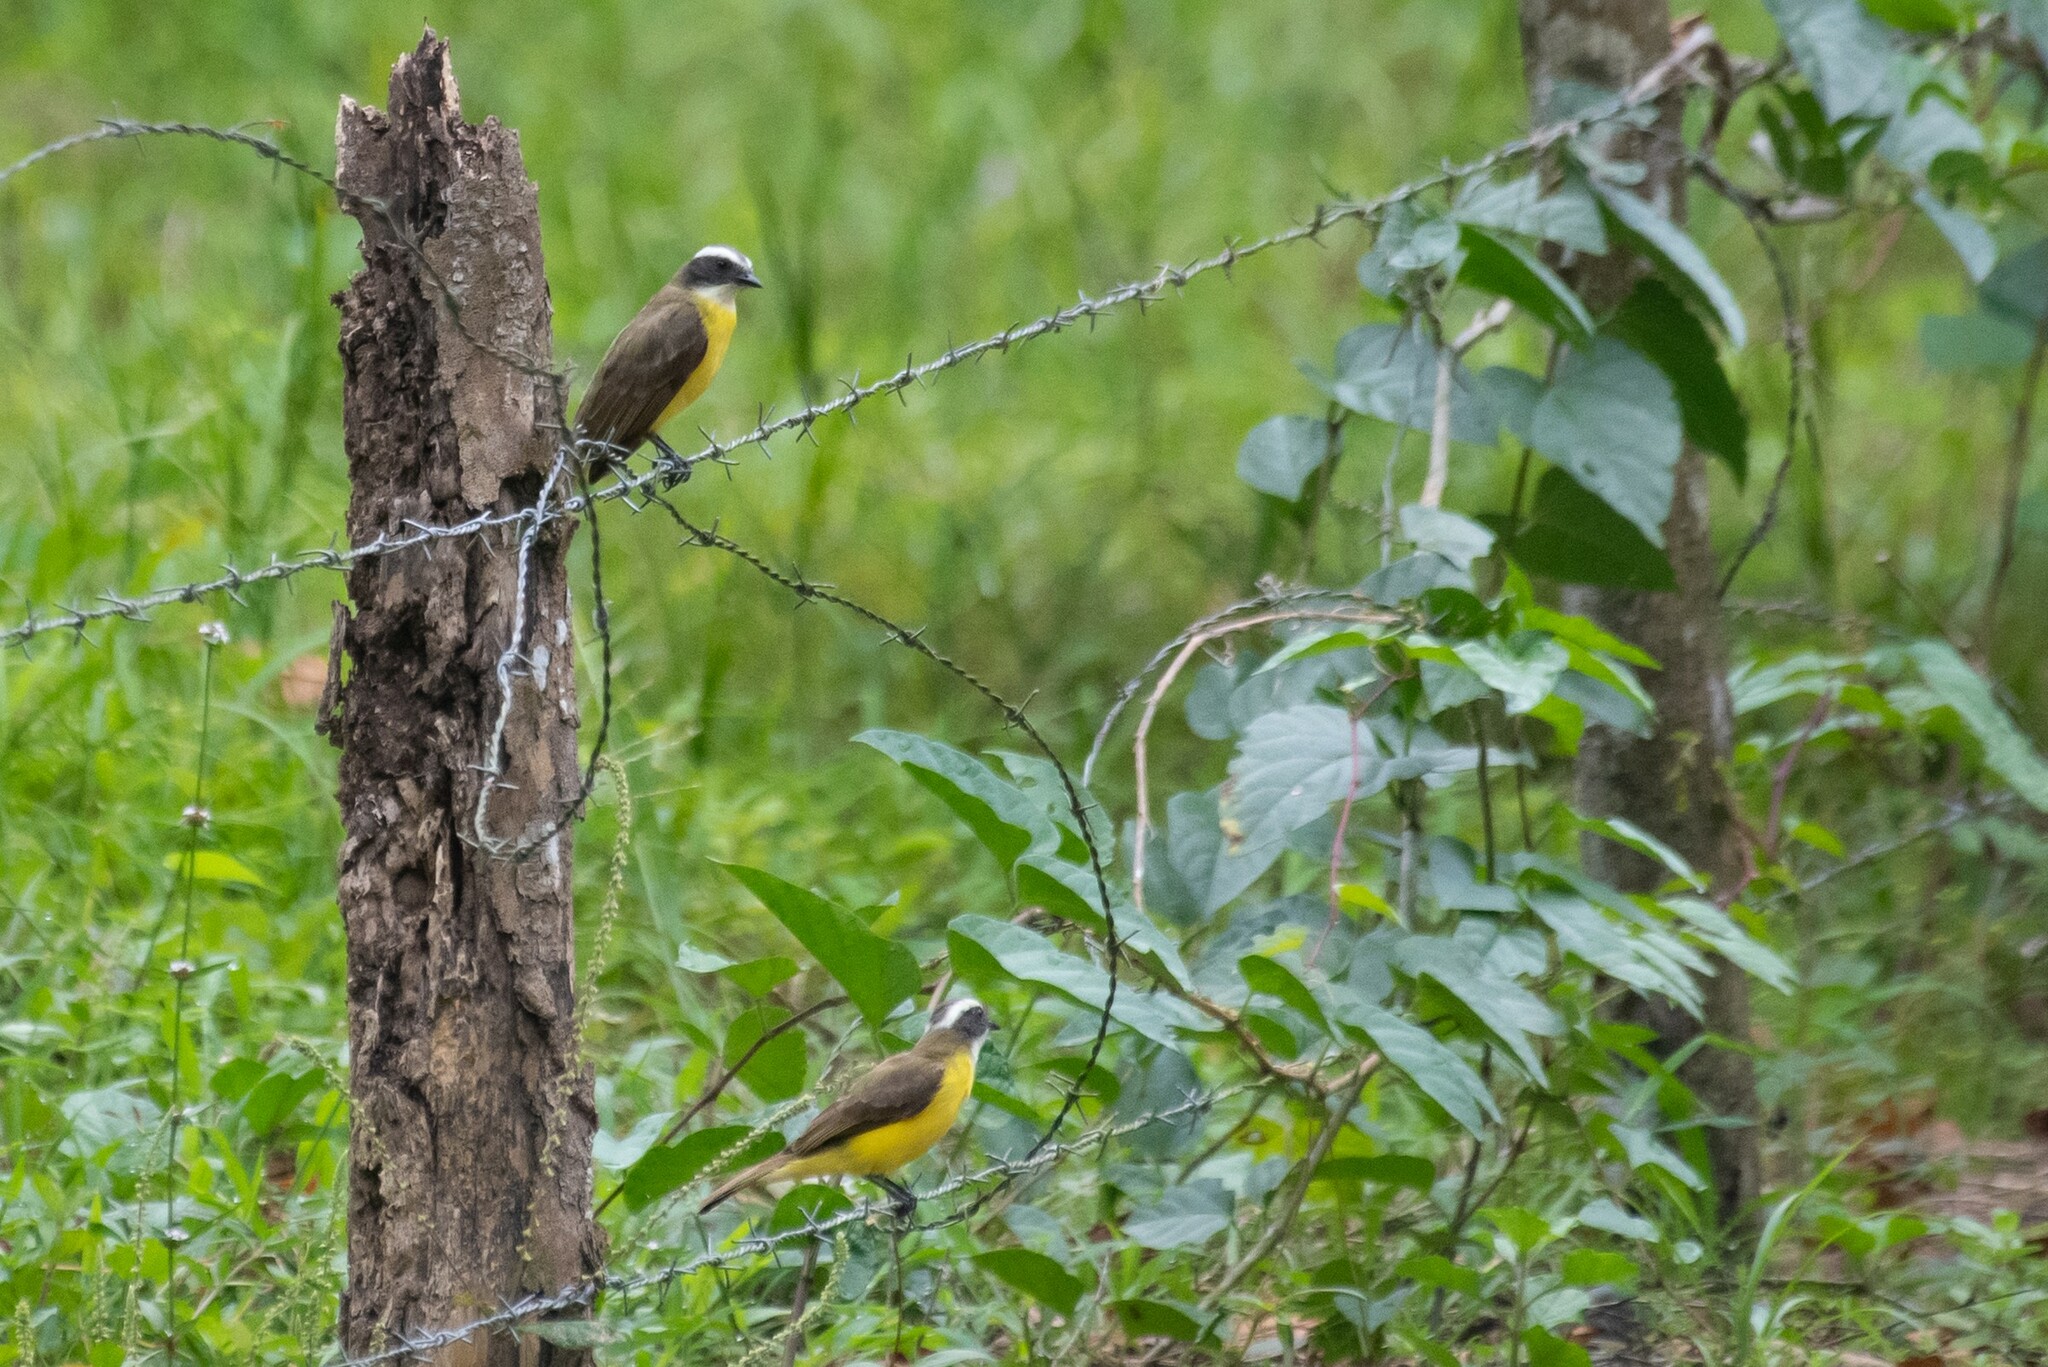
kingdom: Animalia
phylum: Chordata
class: Aves
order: Passeriformes
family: Tyrannidae
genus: Myiozetetes
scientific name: Myiozetetes similis
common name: Social flycatcher
